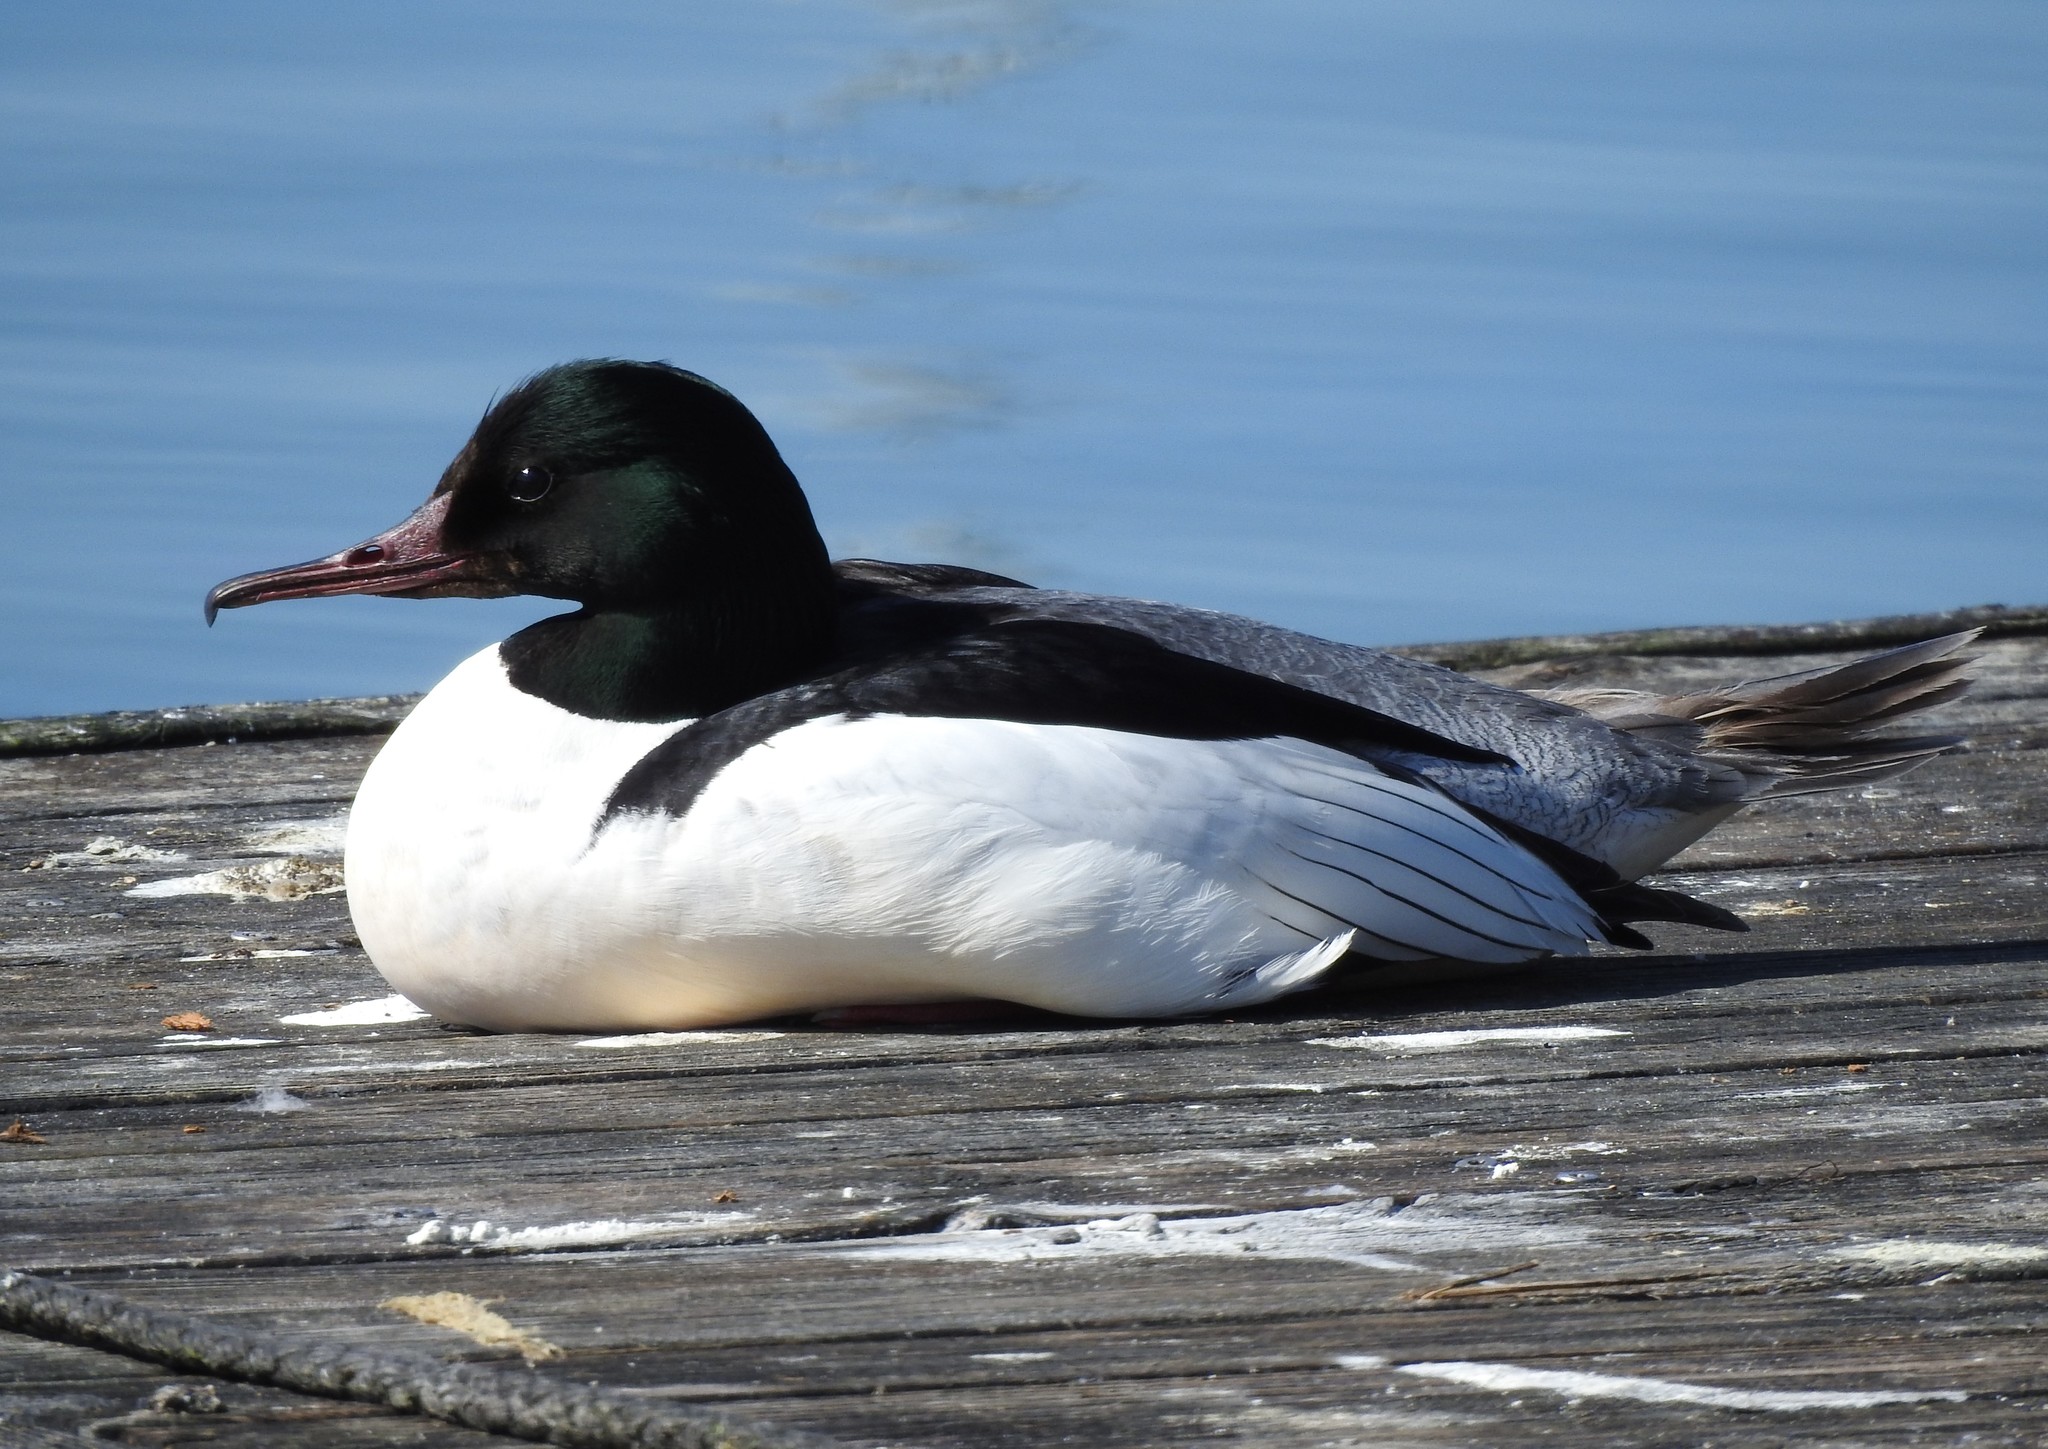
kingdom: Animalia
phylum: Chordata
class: Aves
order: Anseriformes
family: Anatidae
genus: Mergus
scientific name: Mergus merganser
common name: Common merganser
